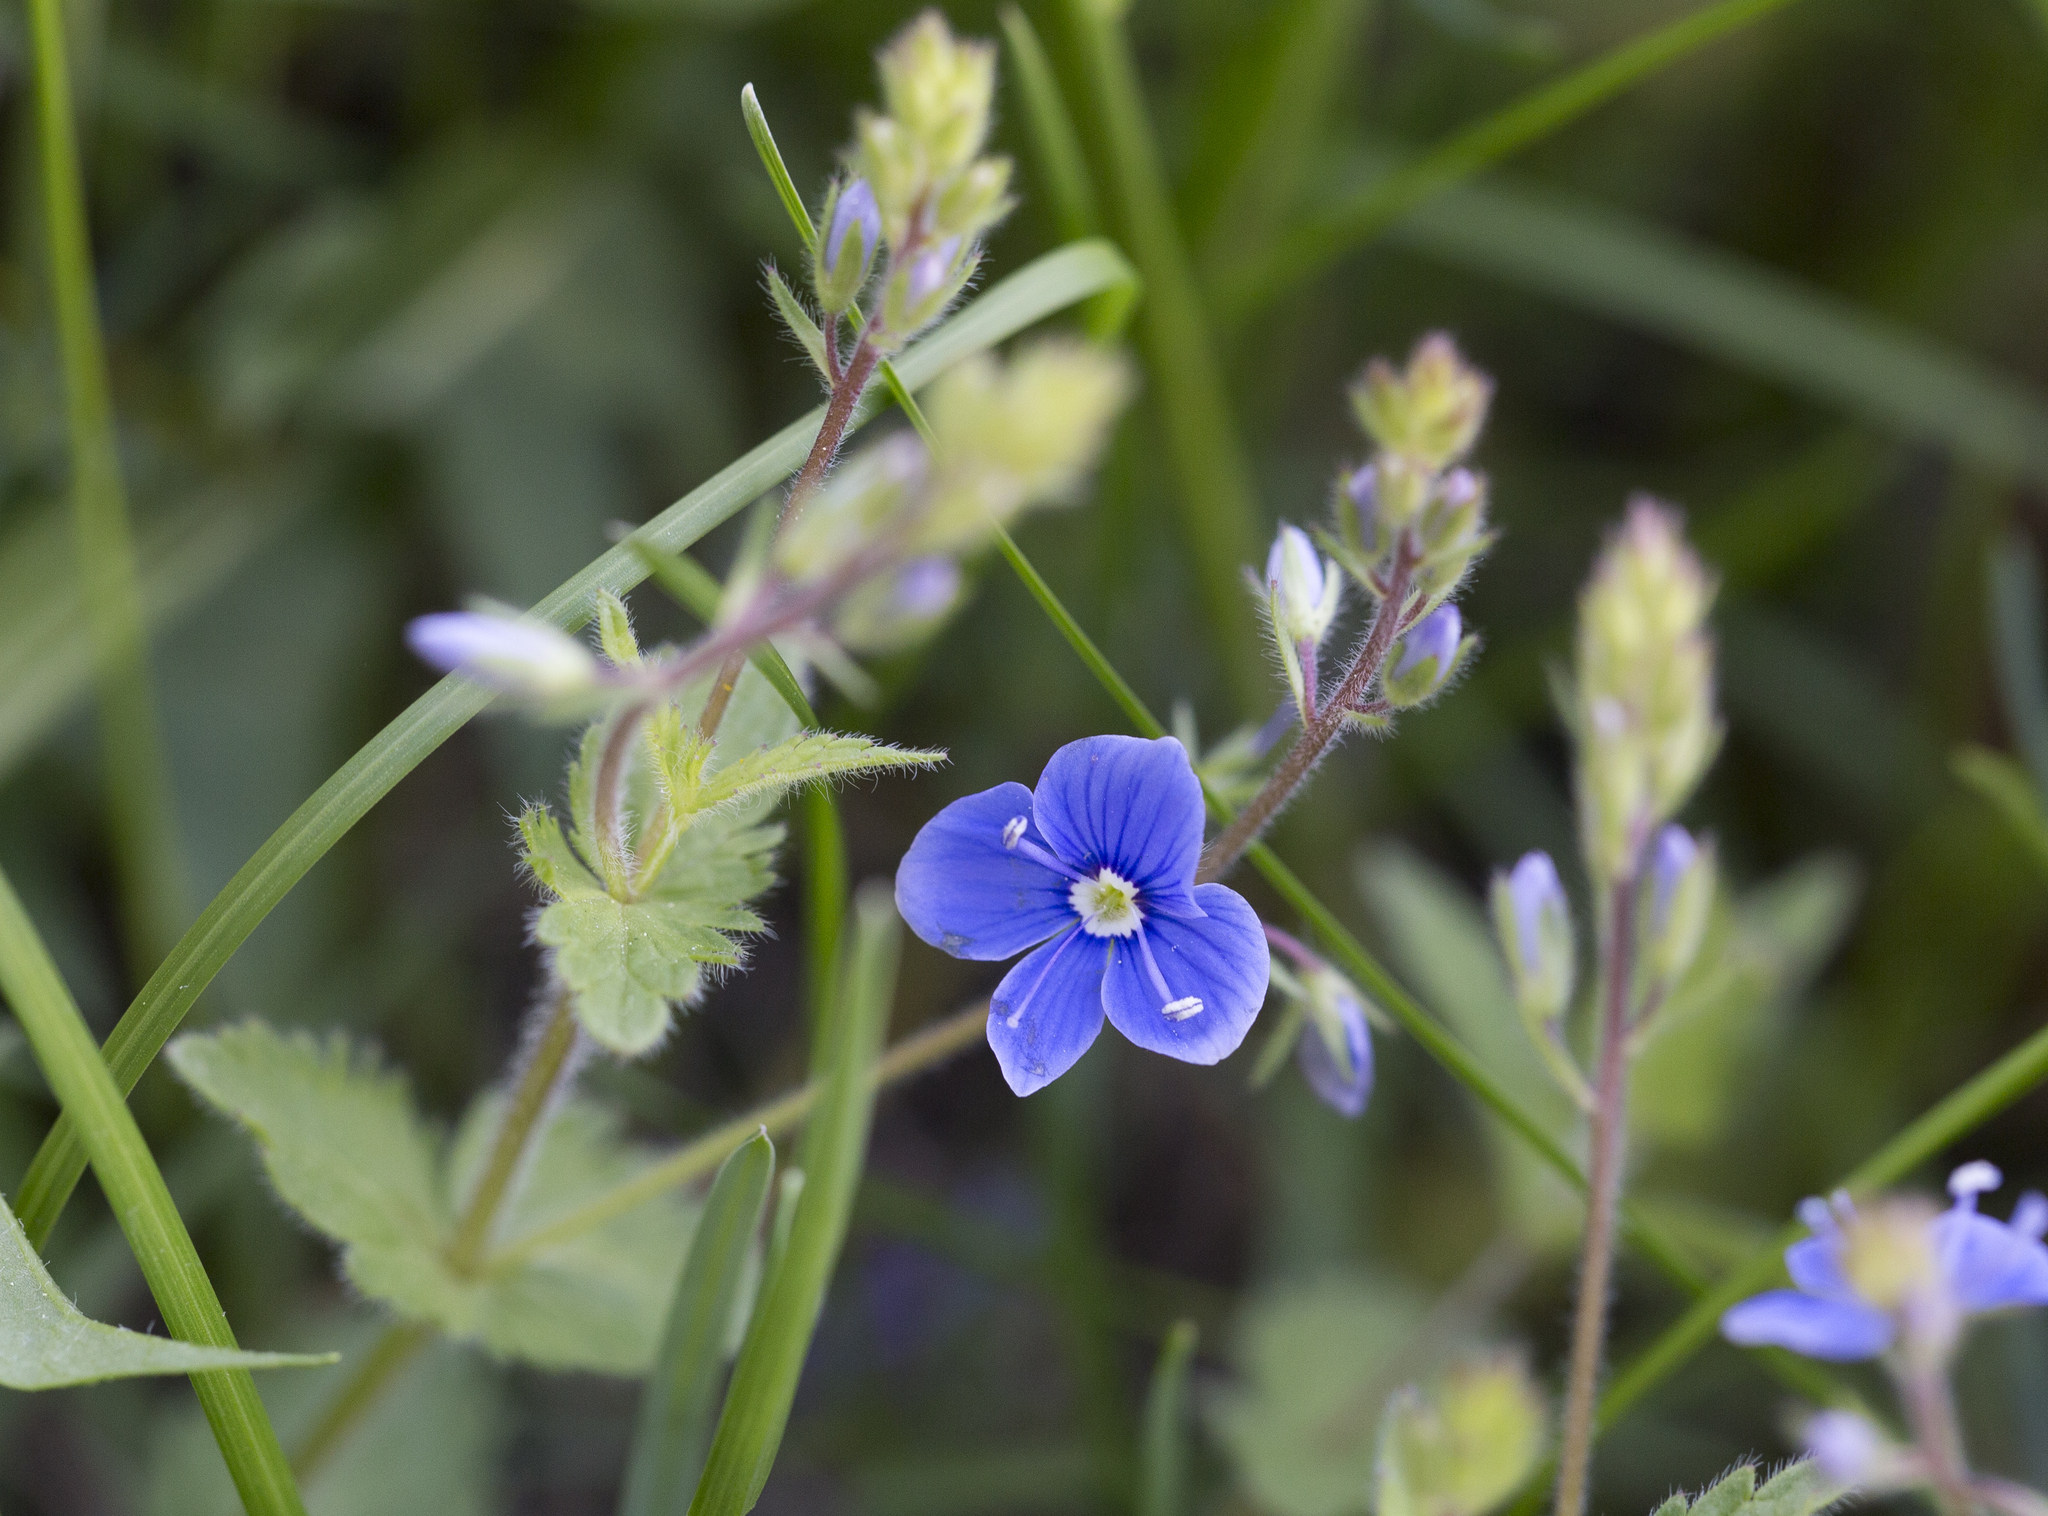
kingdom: Plantae
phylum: Tracheophyta
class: Magnoliopsida
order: Lamiales
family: Plantaginaceae
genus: Veronica
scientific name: Veronica chamaedrys
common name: Germander speedwell
